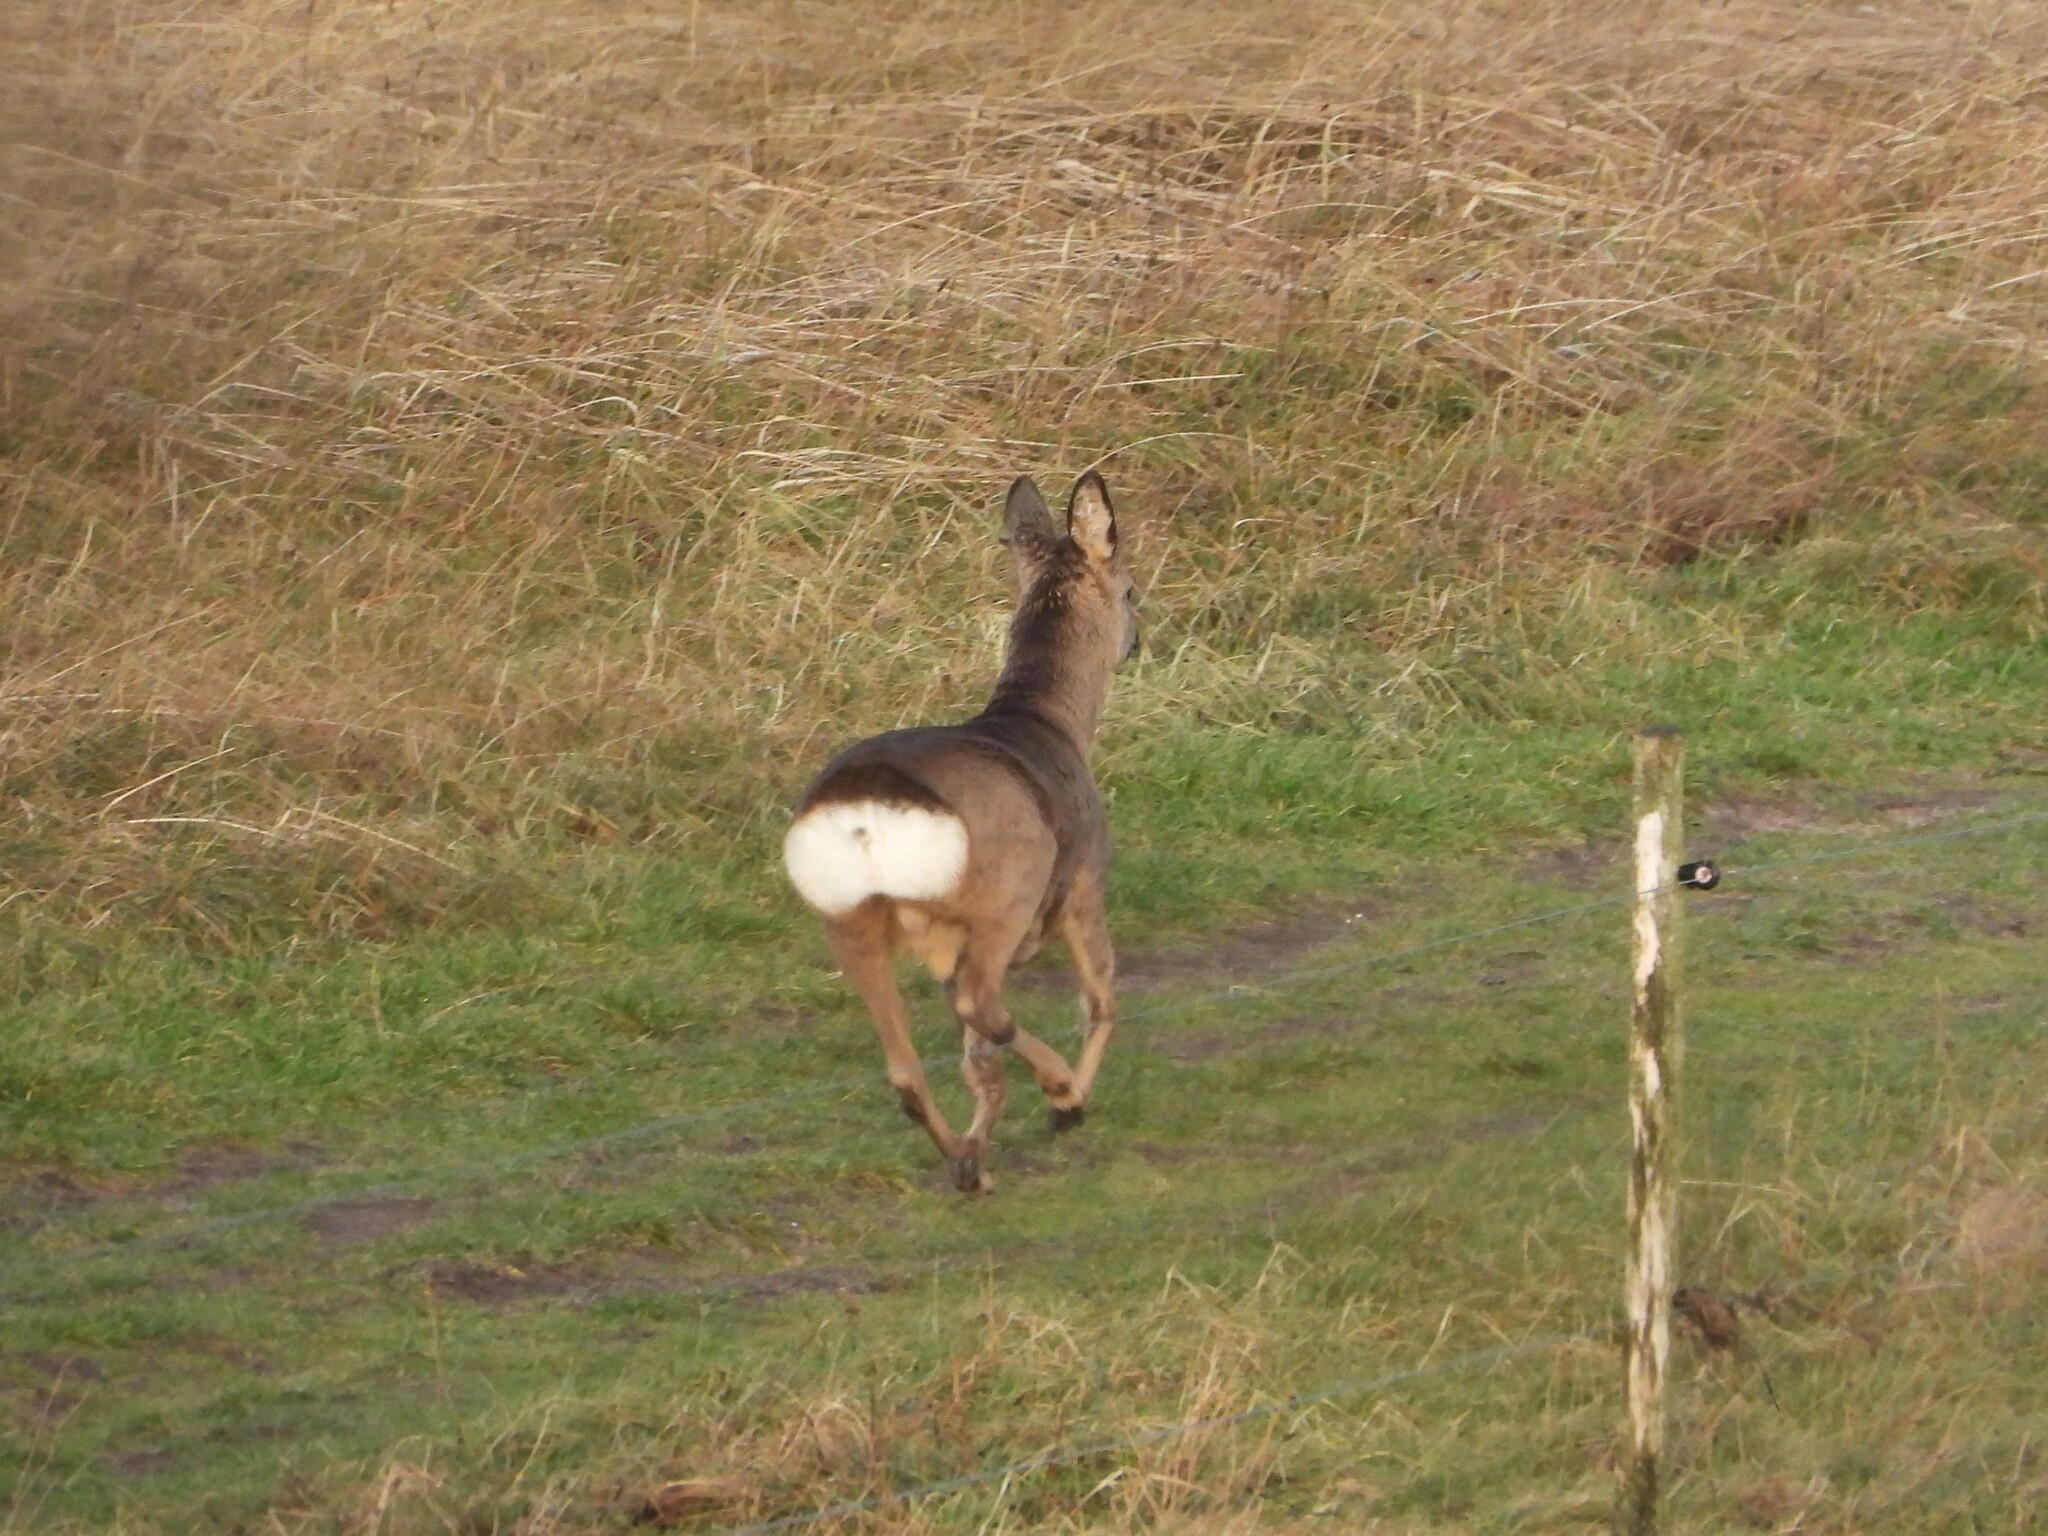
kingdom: Animalia
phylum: Chordata
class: Mammalia
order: Artiodactyla
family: Cervidae
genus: Capreolus
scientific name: Capreolus capreolus
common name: Western roe deer
